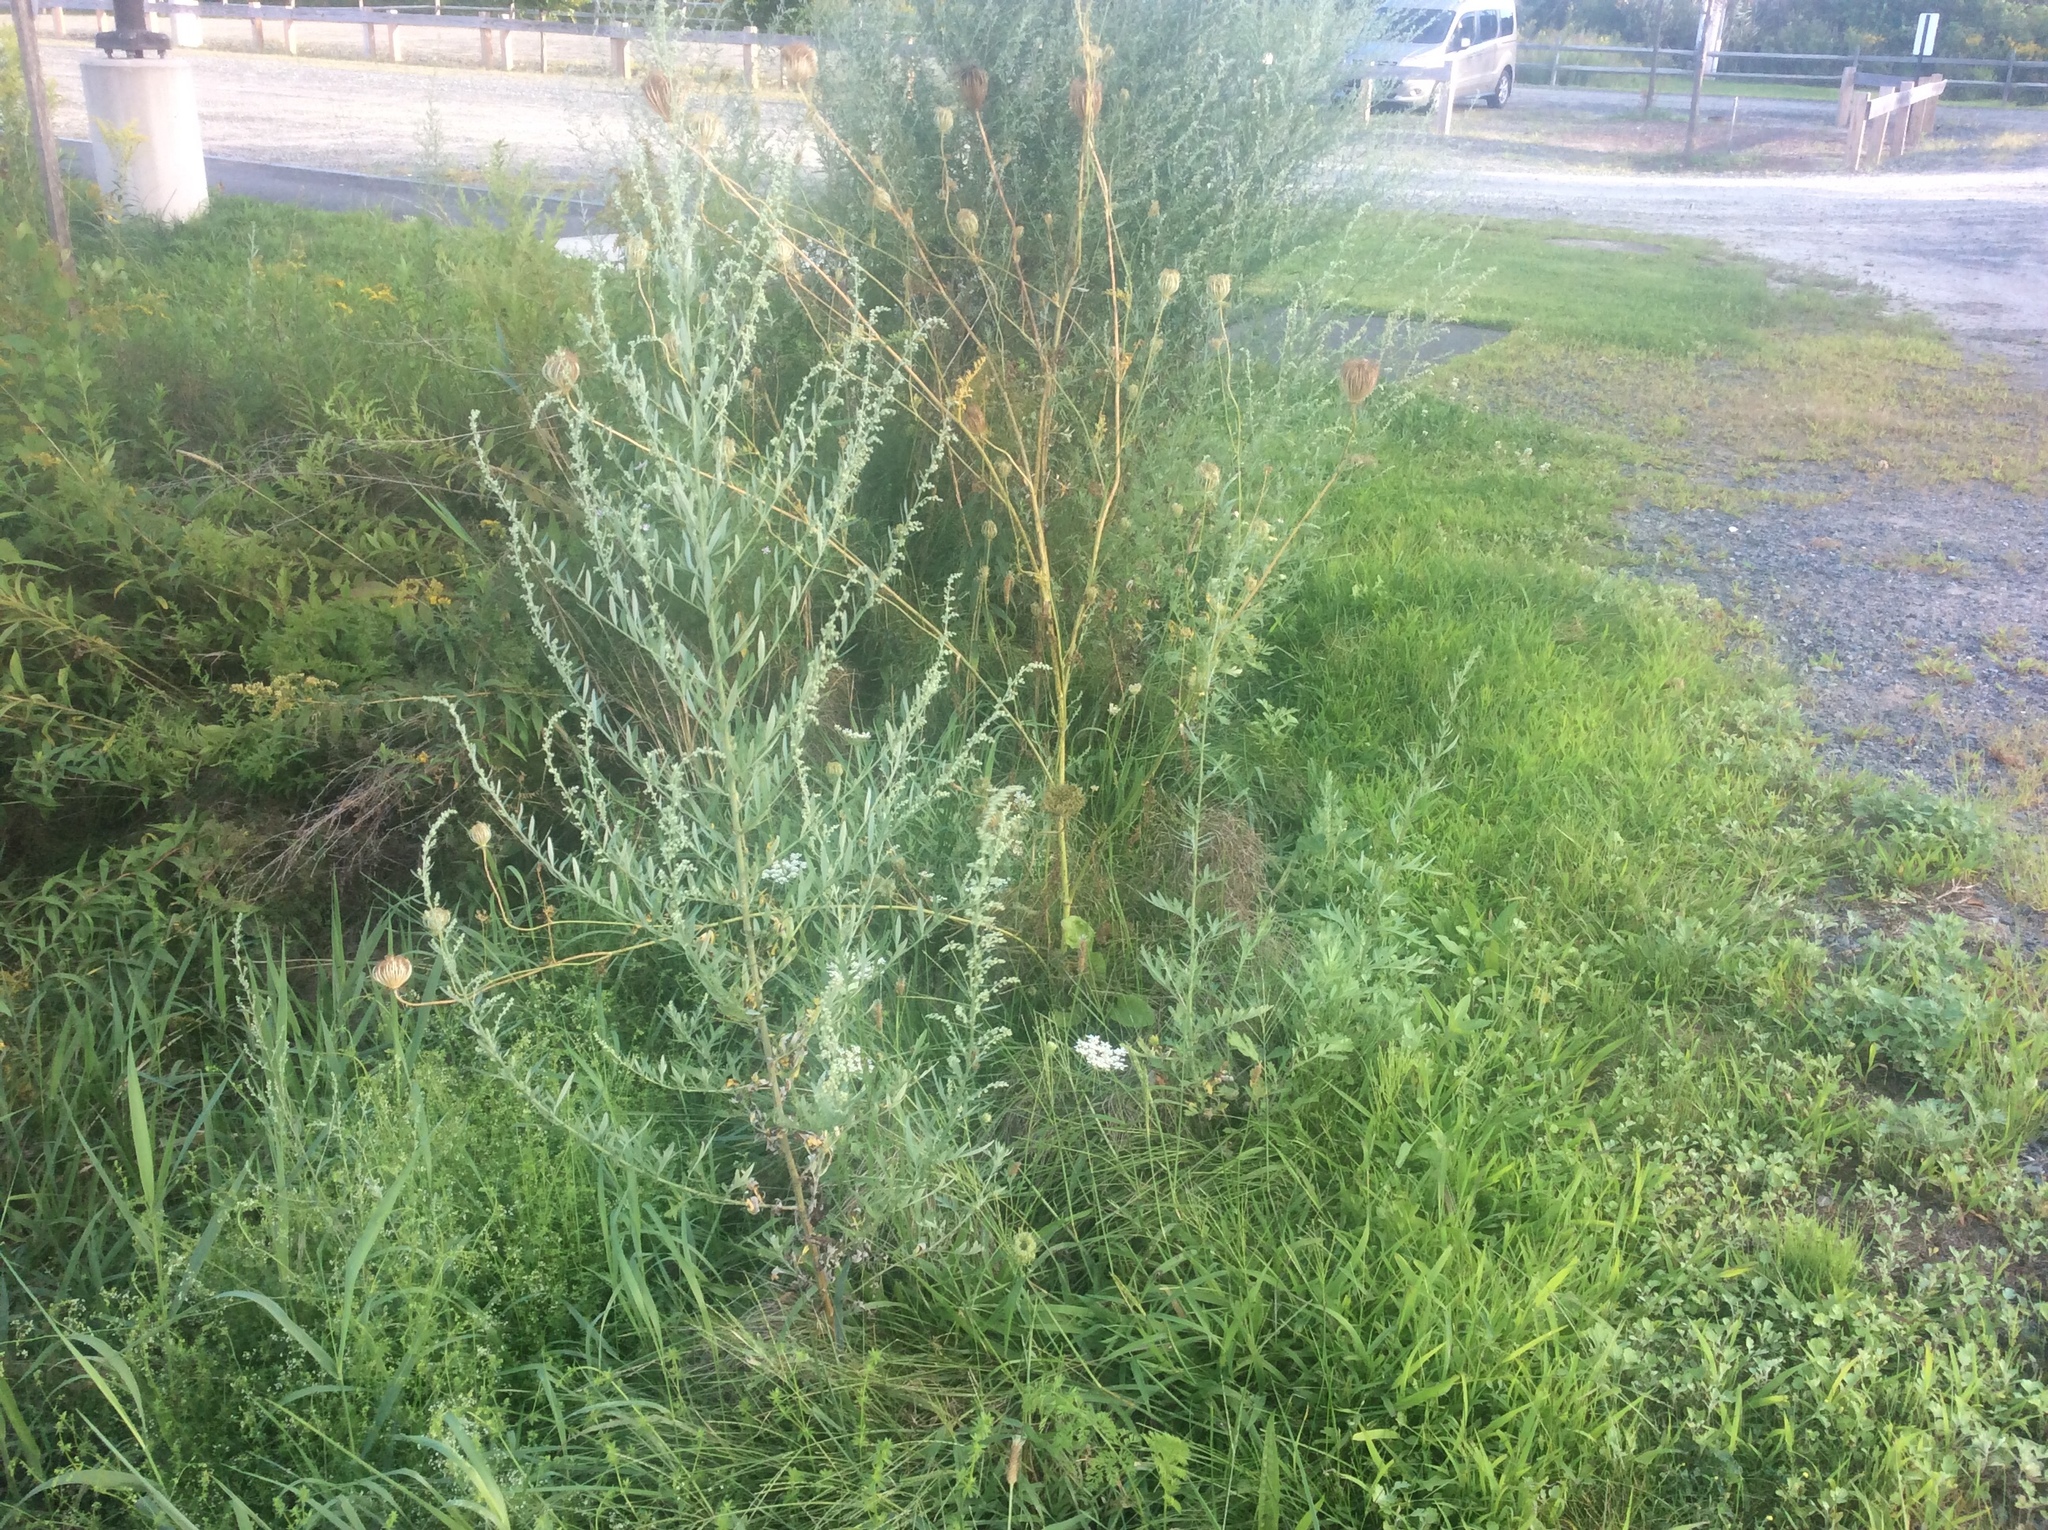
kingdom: Plantae
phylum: Tracheophyta
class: Magnoliopsida
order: Asterales
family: Asteraceae
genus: Artemisia
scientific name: Artemisia vulgaris
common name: Mugwort
